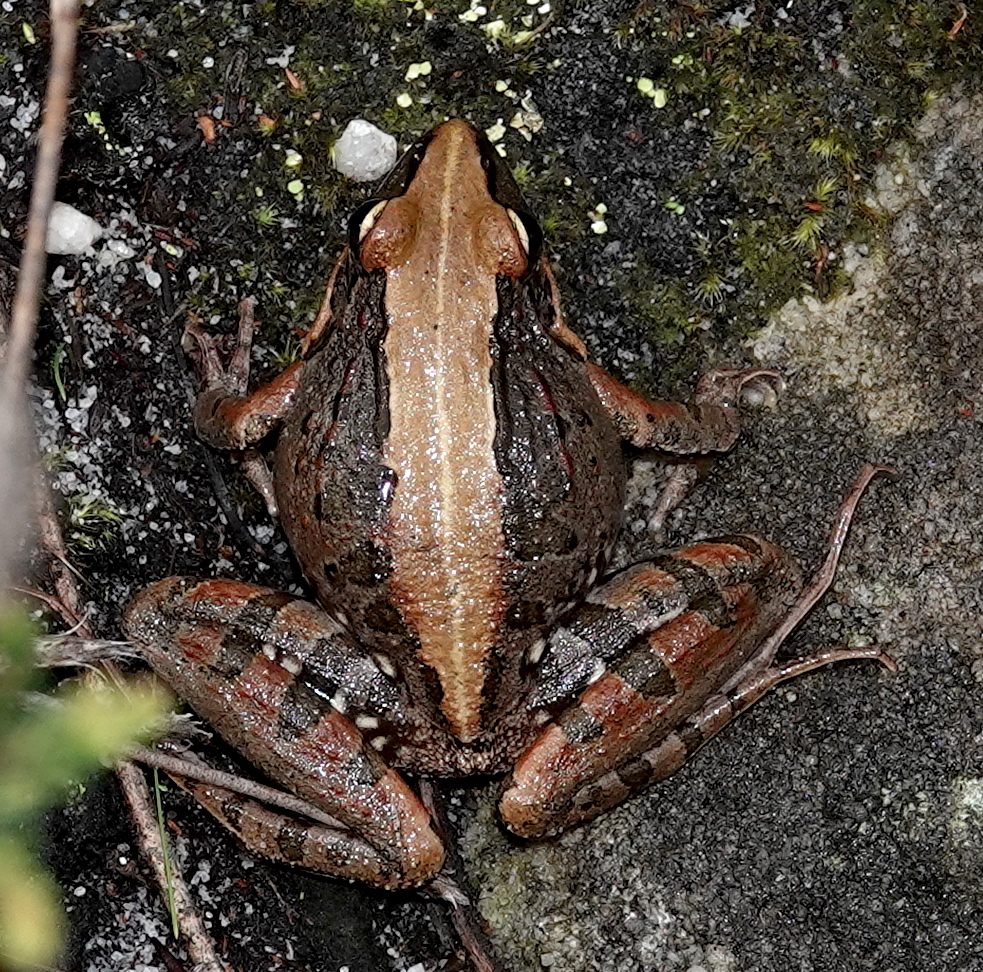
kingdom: Animalia
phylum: Chordata
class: Amphibia
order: Anura
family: Pyxicephalidae
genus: Strongylopus
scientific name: Strongylopus grayii
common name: Gray's stream frog
